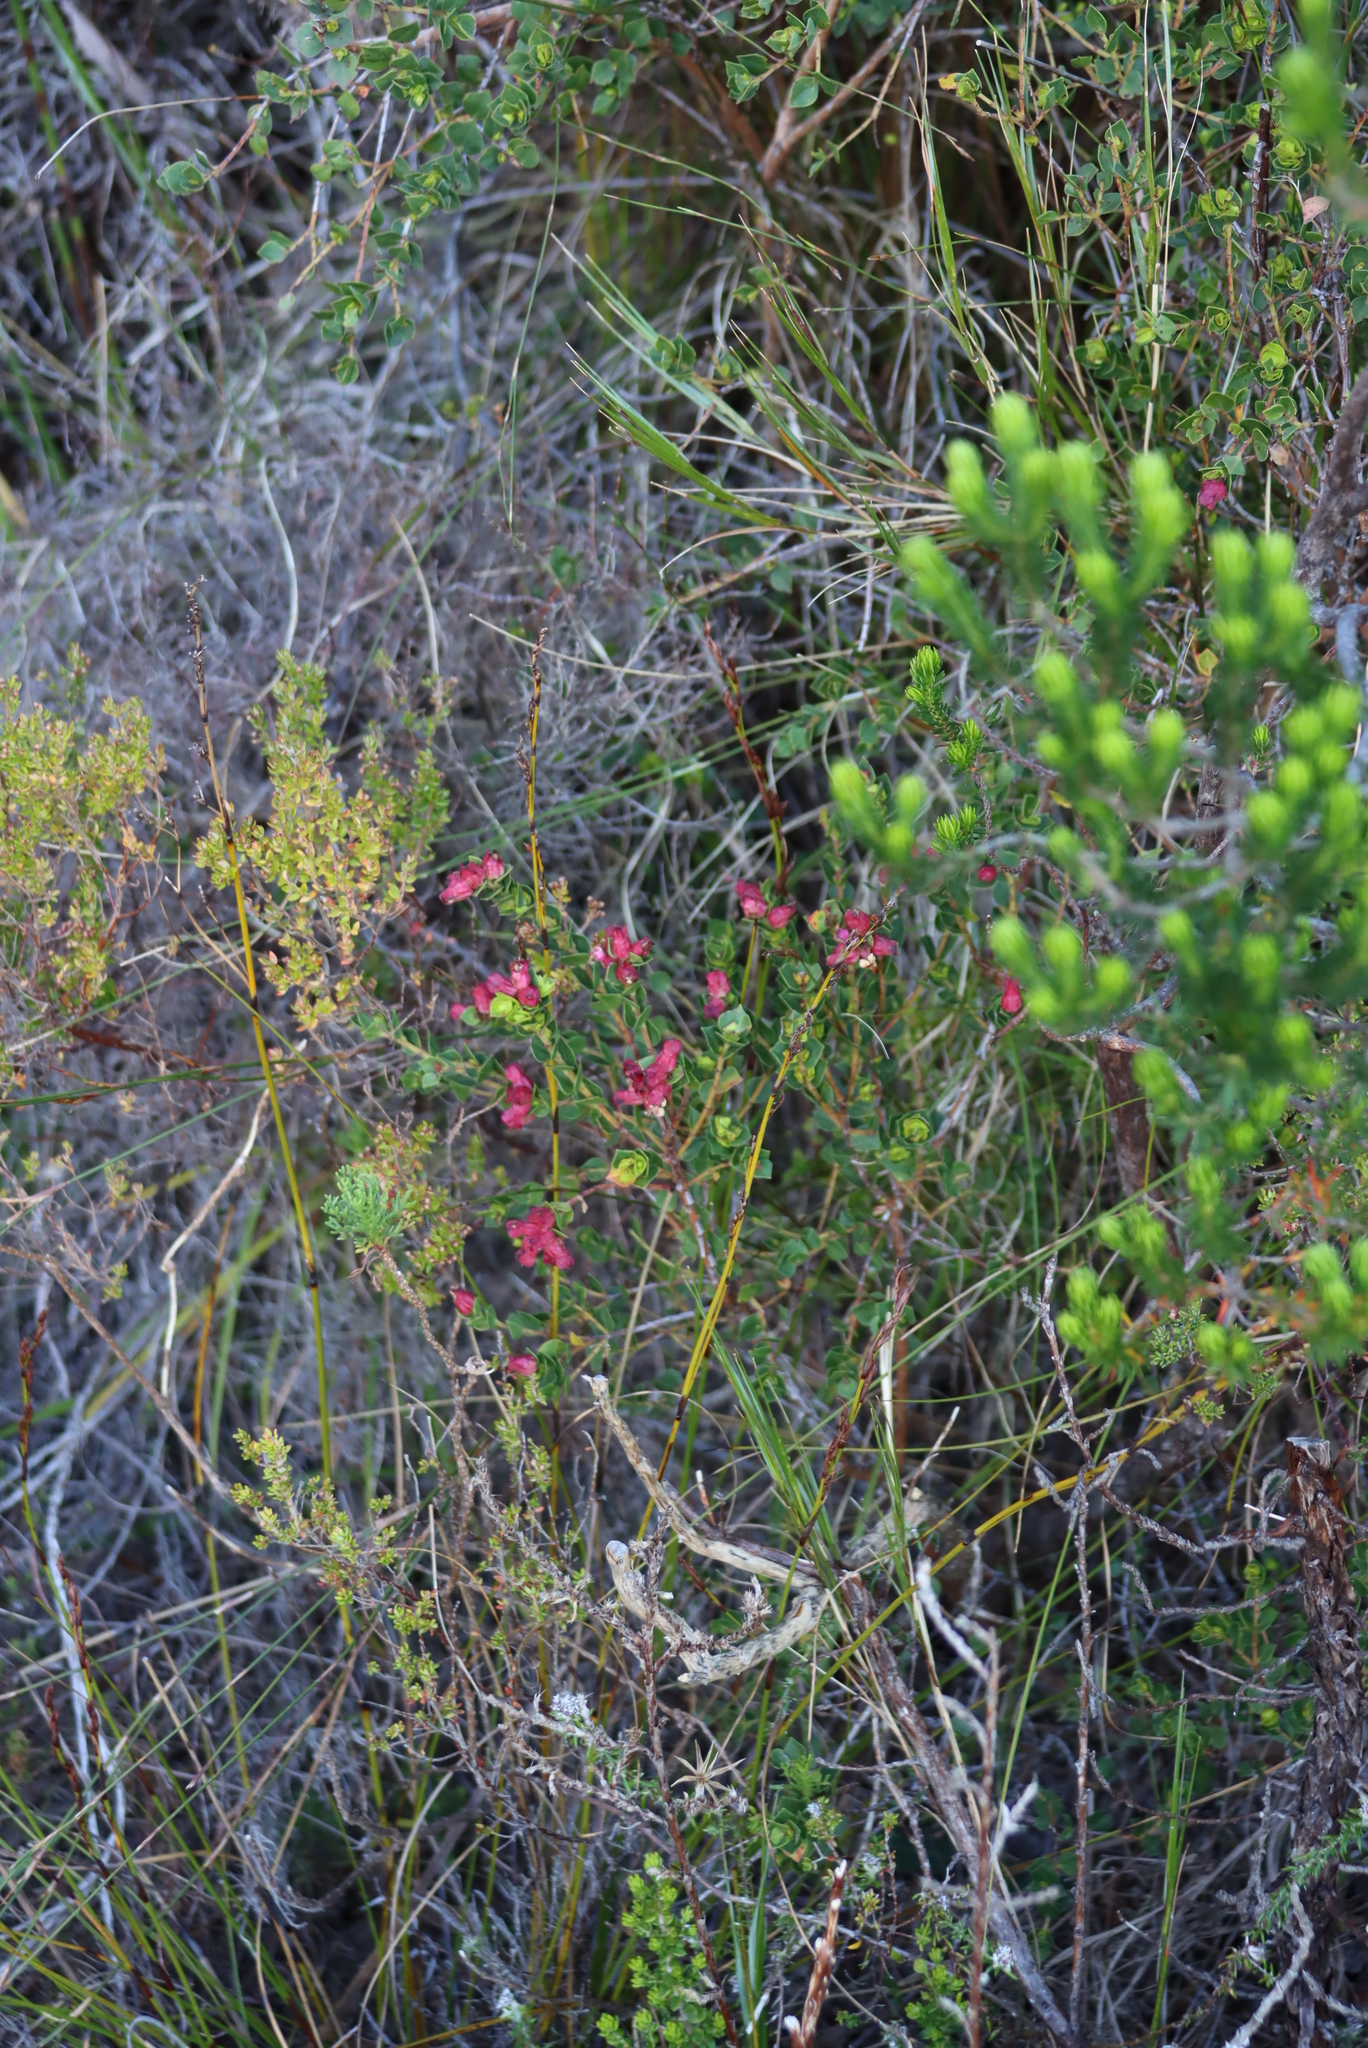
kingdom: Plantae
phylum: Tracheophyta
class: Magnoliopsida
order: Myrtales
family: Penaeaceae
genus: Brachysiphon
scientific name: Brachysiphon fucatus
